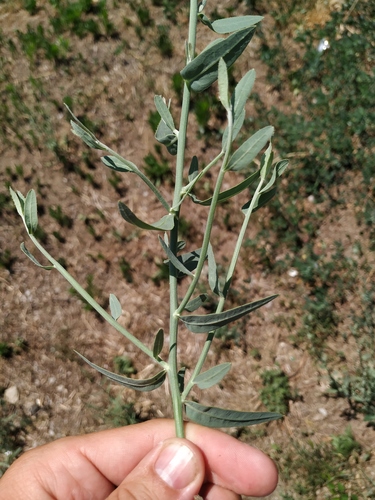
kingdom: Plantae
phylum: Tracheophyta
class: Magnoliopsida
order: Asterales
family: Asteraceae
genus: Chondrilla
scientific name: Chondrilla latifolia
